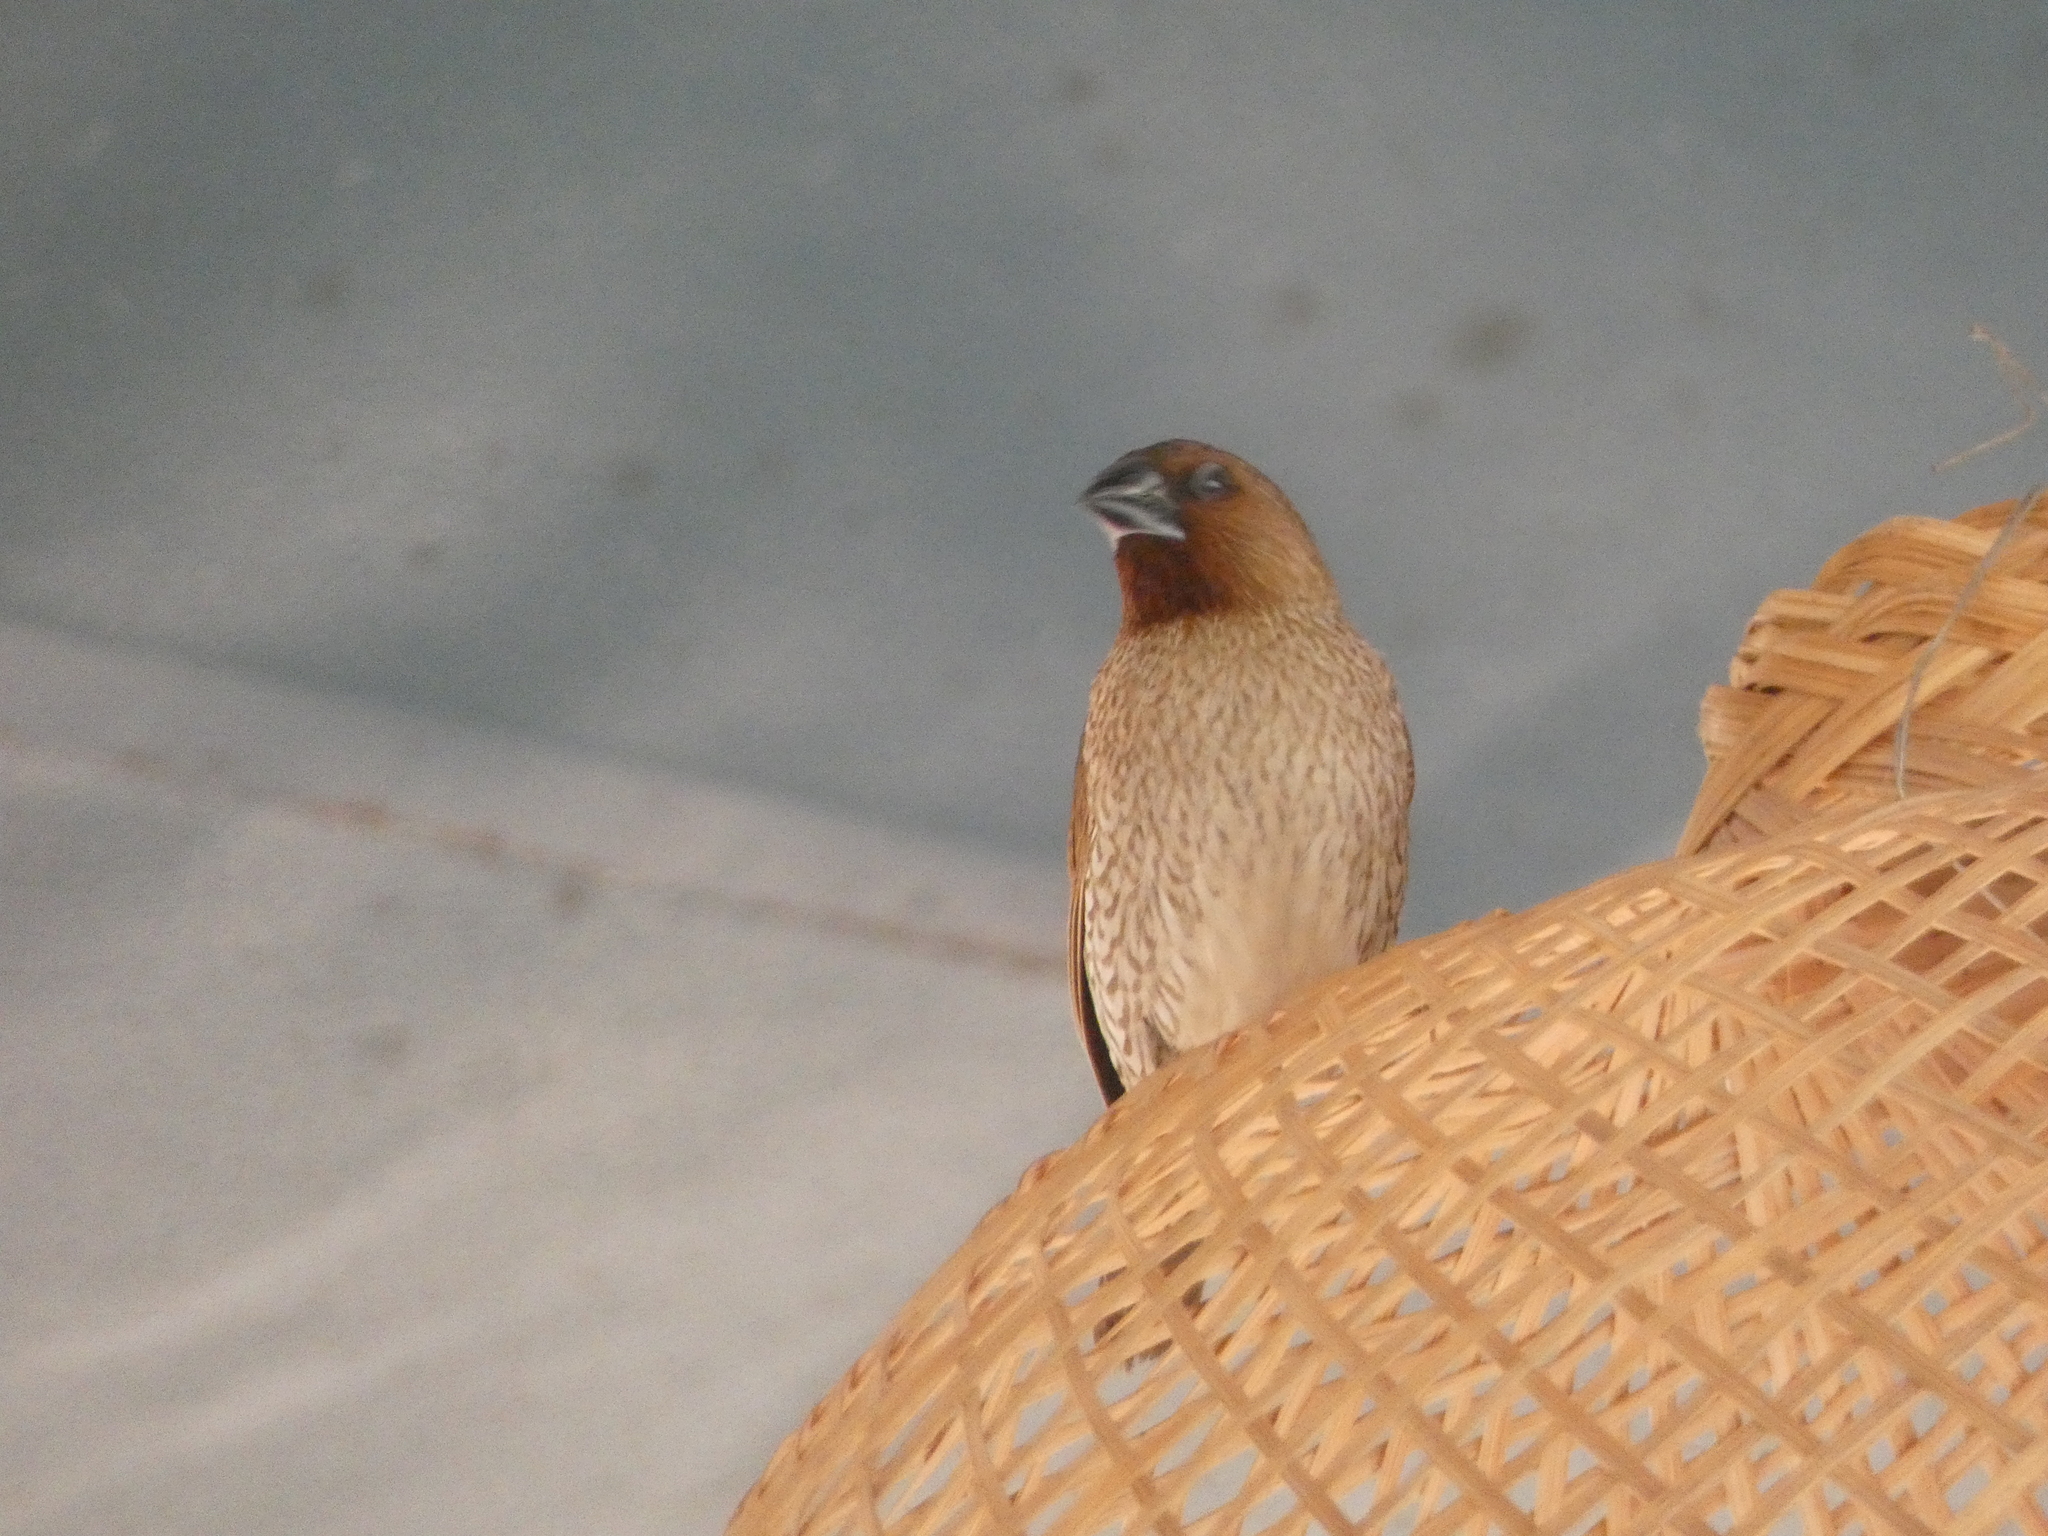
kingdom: Animalia
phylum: Chordata
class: Aves
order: Passeriformes
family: Estrildidae
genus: Lonchura
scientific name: Lonchura punctulata
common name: Scaly-breasted munia
